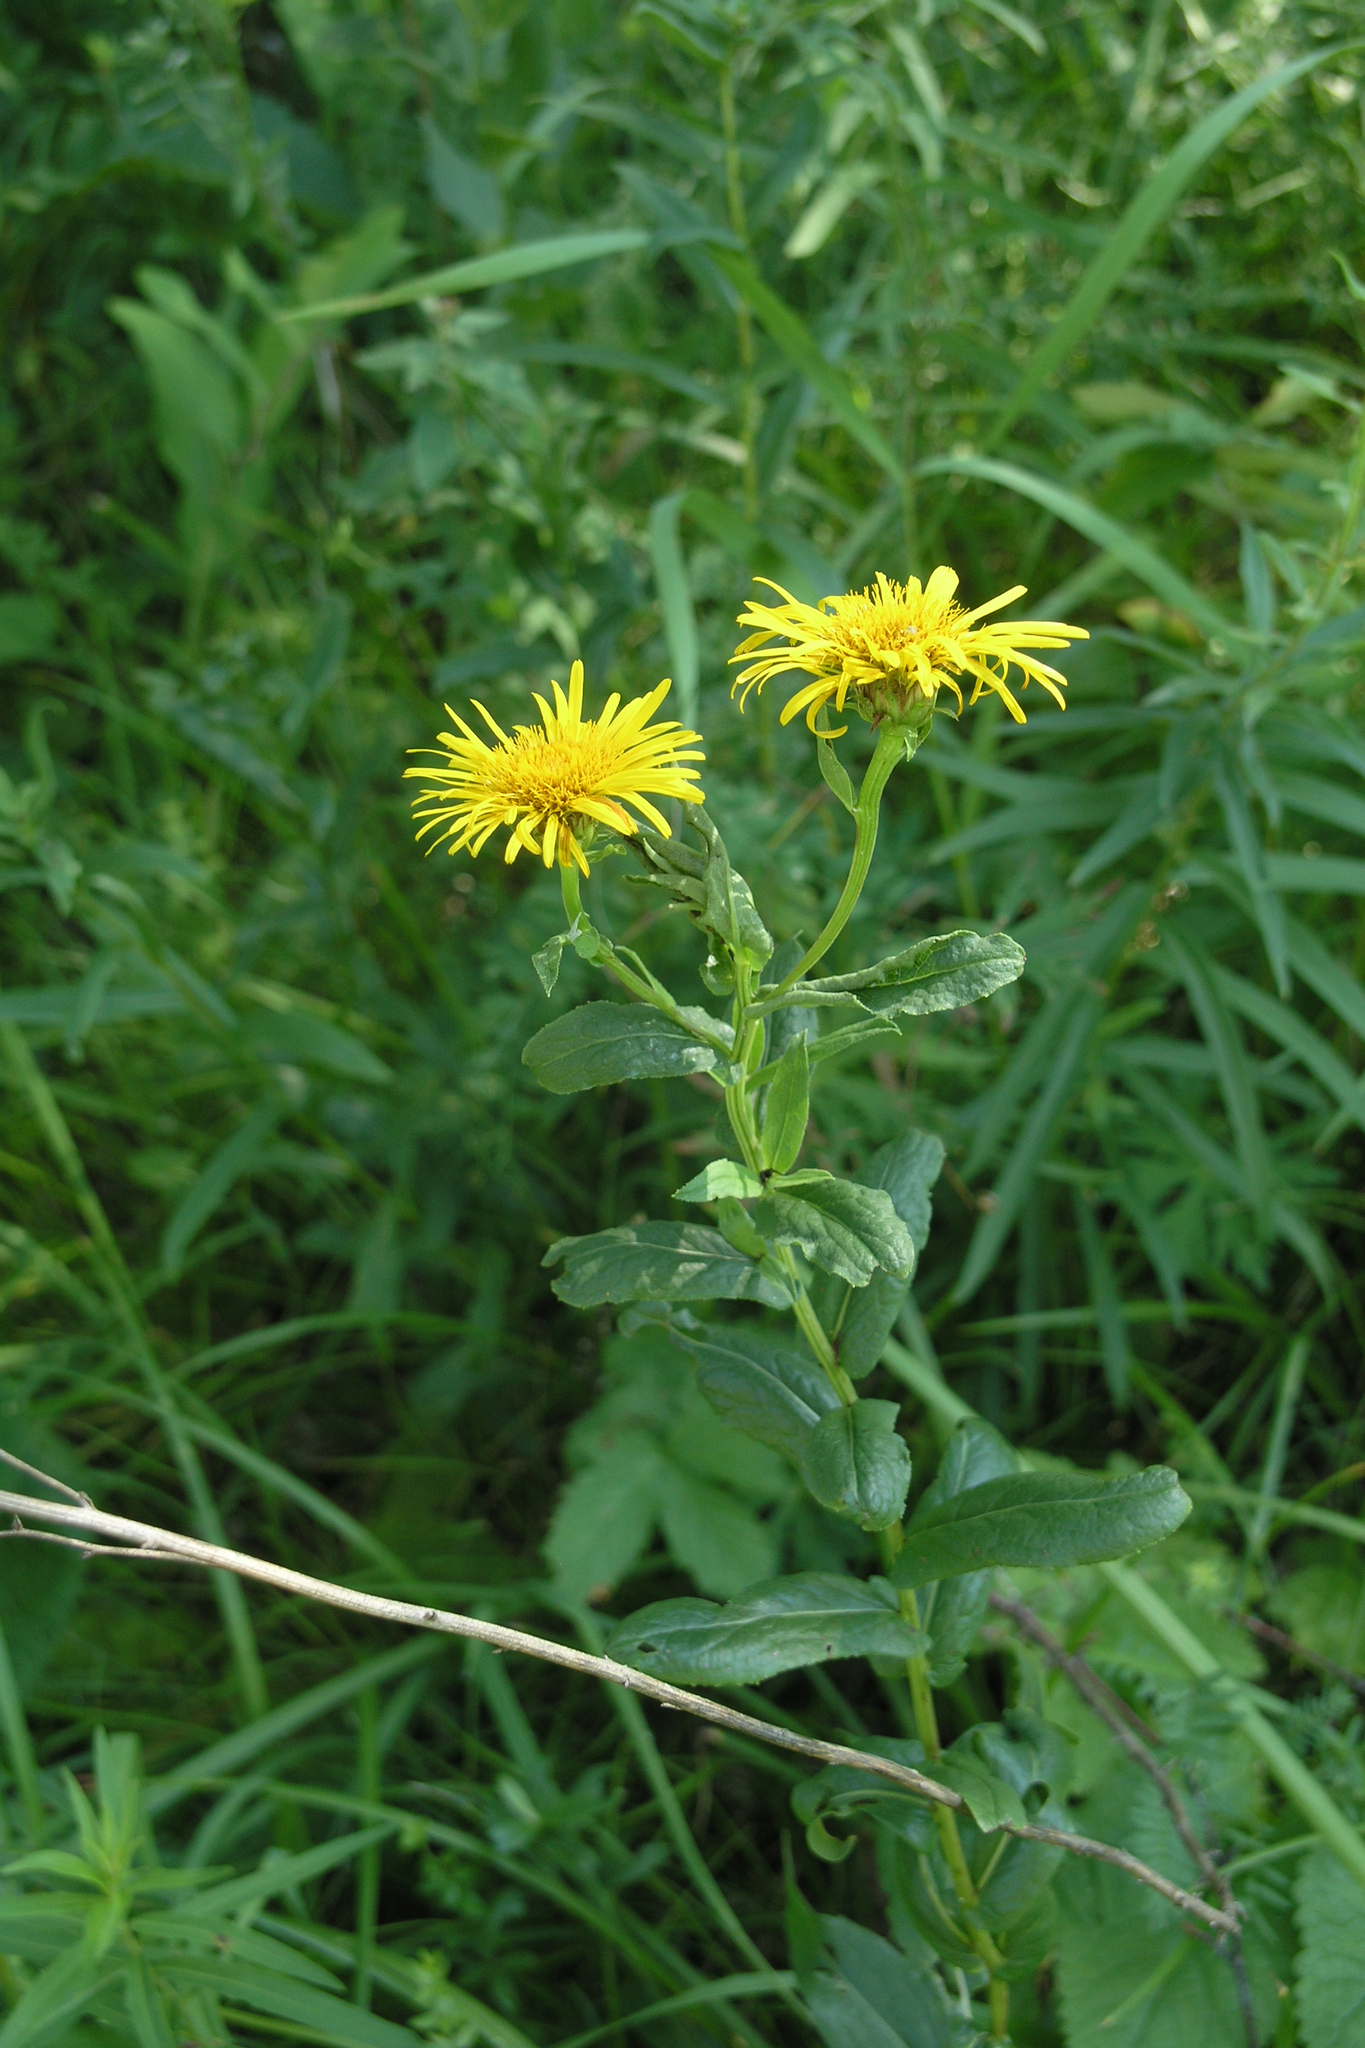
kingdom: Plantae
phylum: Tracheophyta
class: Magnoliopsida
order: Asterales
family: Asteraceae
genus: Pentanema
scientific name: Pentanema salicinum
